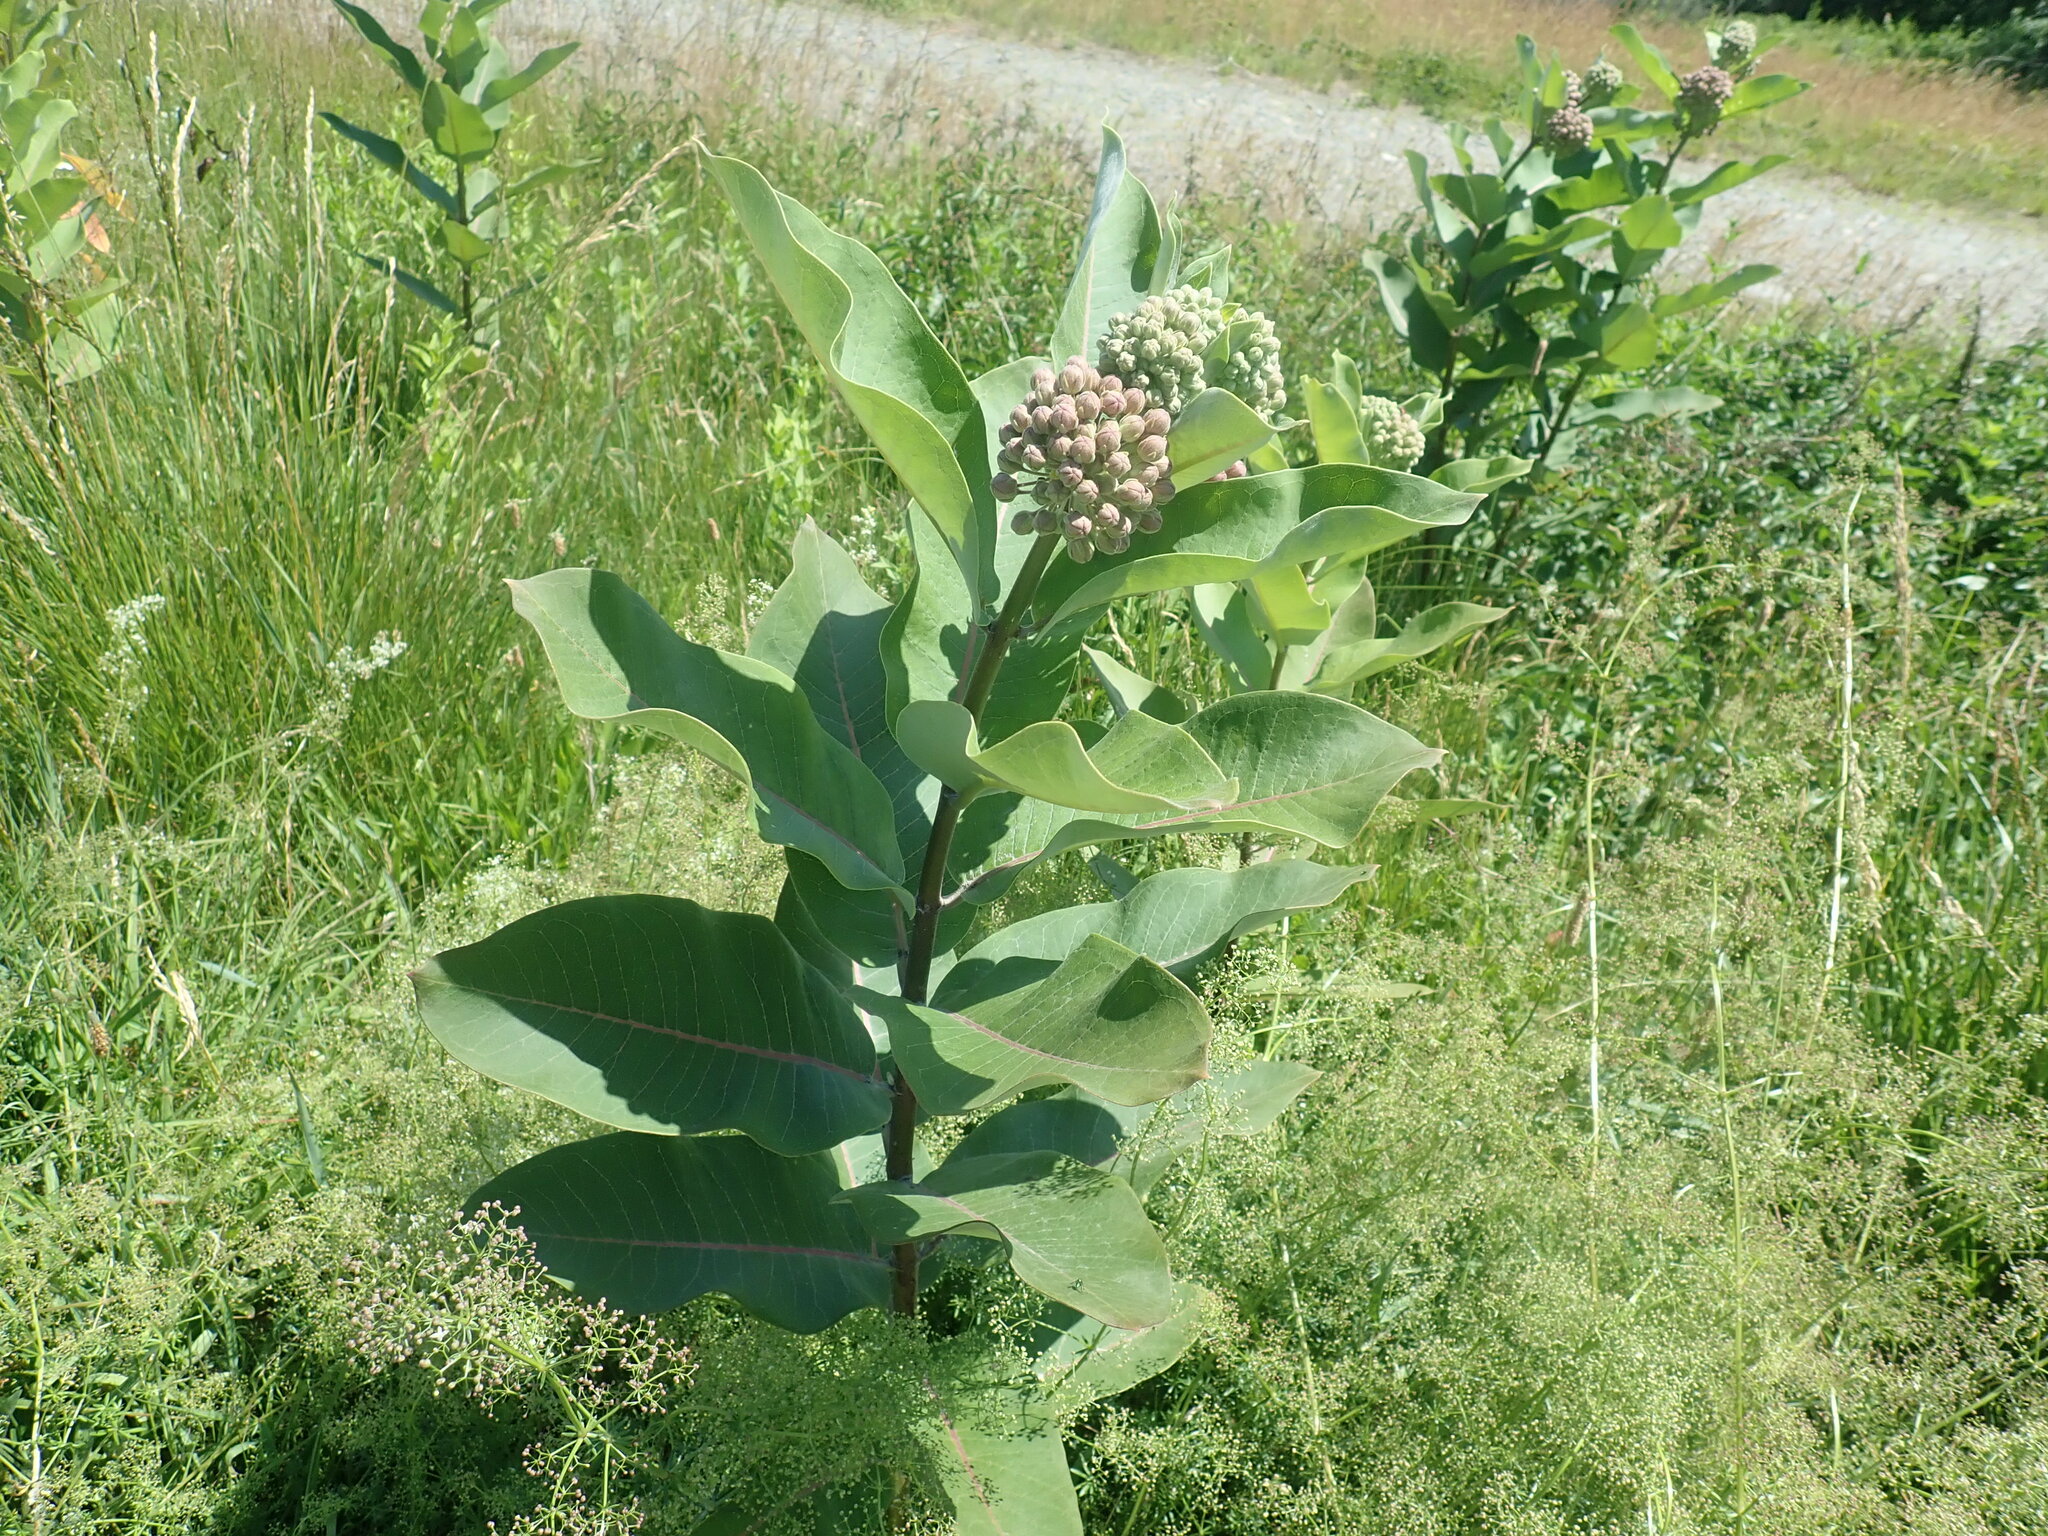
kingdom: Plantae
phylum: Tracheophyta
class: Magnoliopsida
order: Gentianales
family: Apocynaceae
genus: Asclepias
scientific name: Asclepias syriaca
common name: Common milkweed
